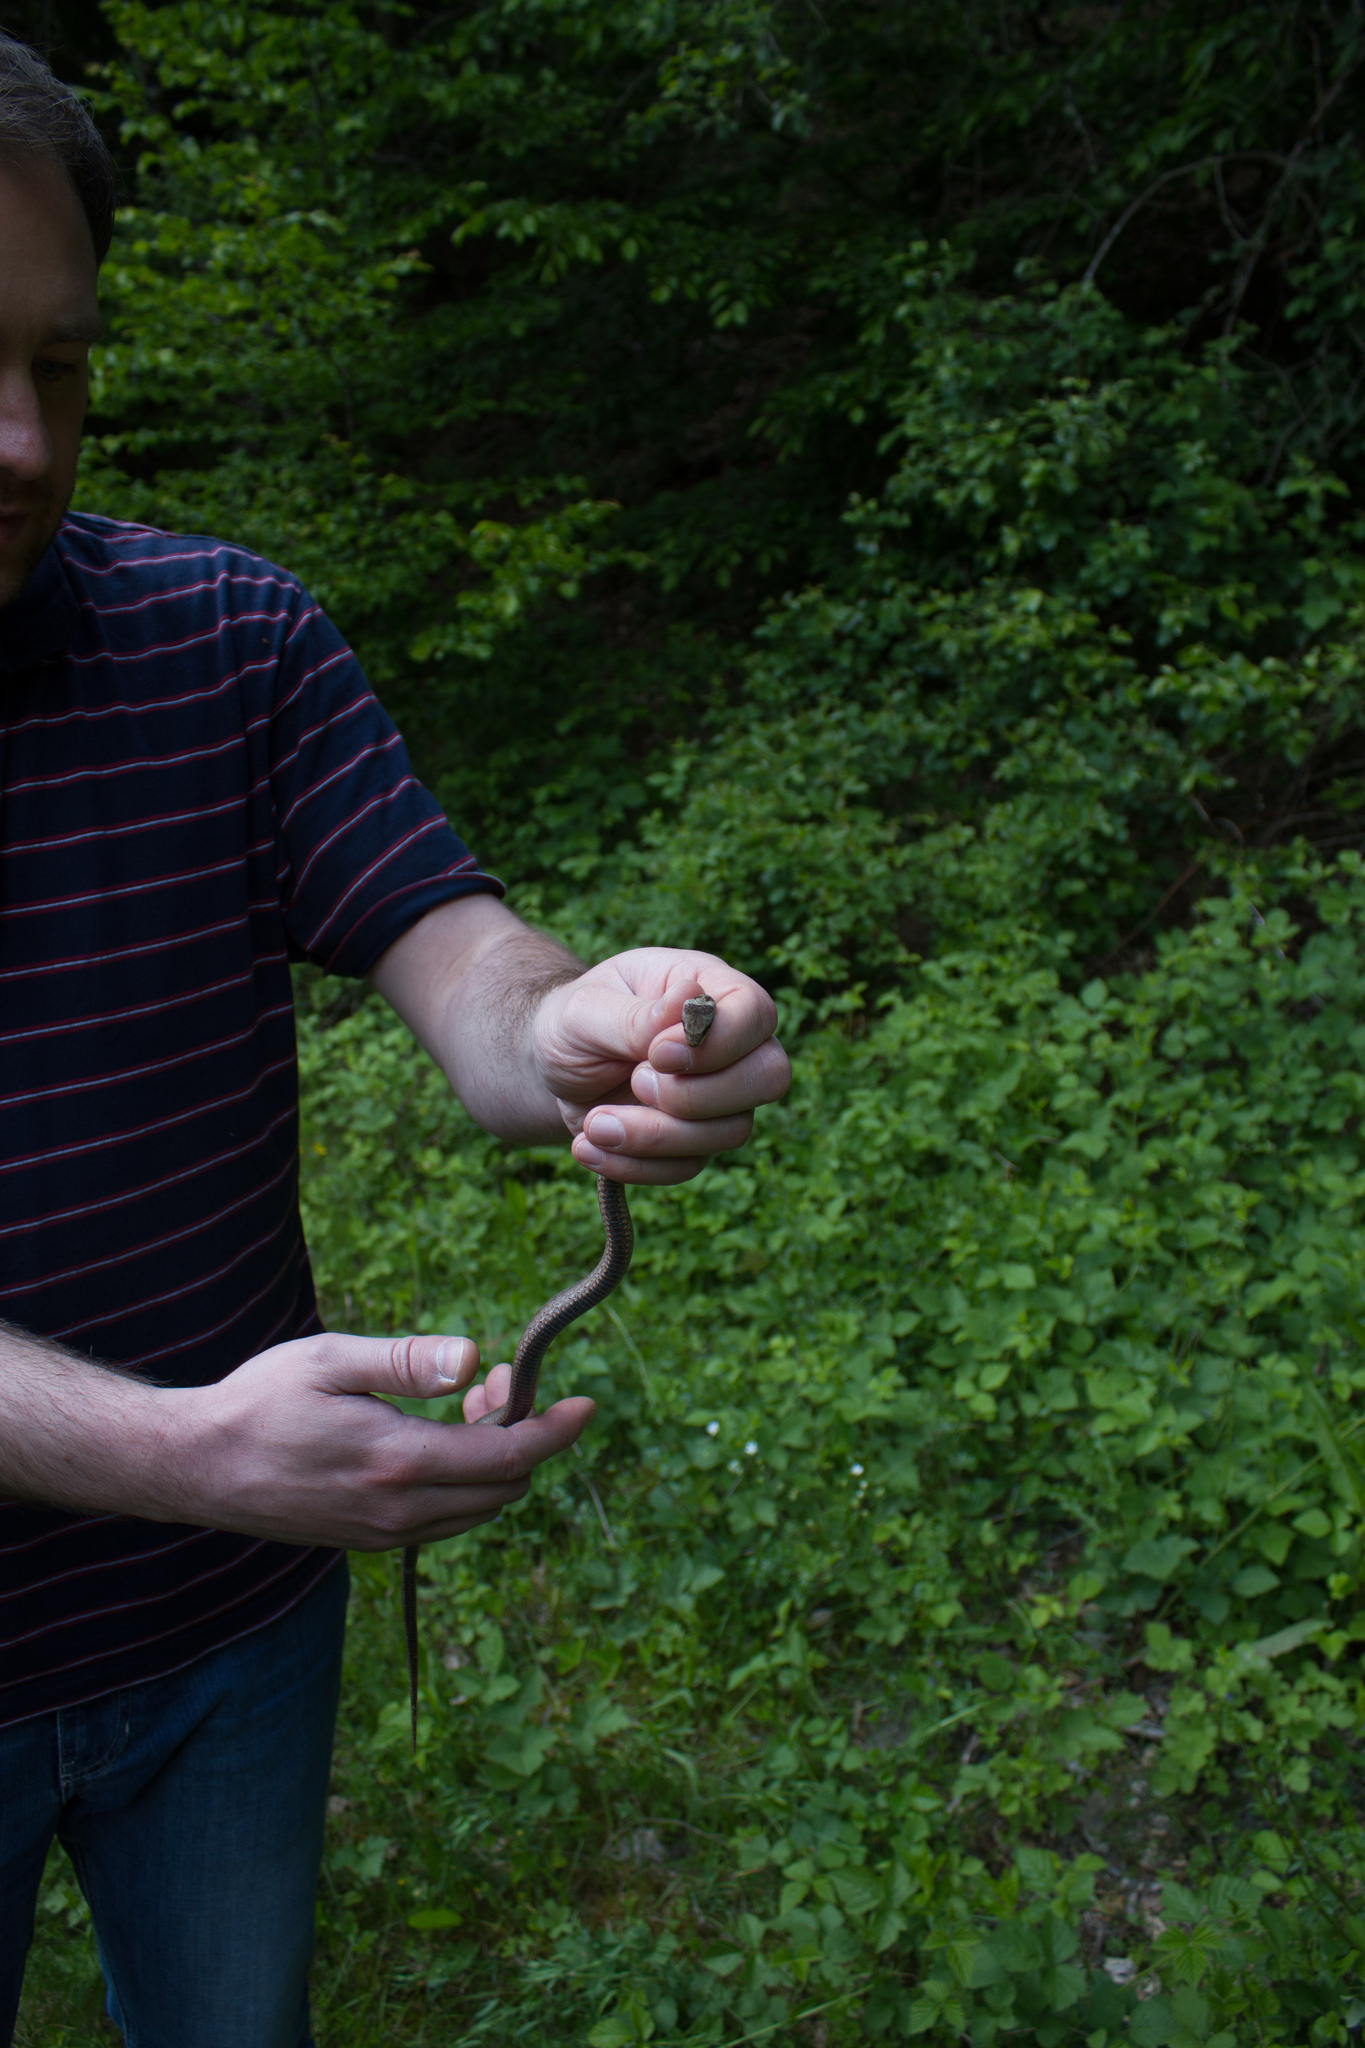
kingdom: Animalia
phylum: Chordata
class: Squamata
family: Colubridae
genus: Coronella
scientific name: Coronella austriaca
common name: Smooth snake
